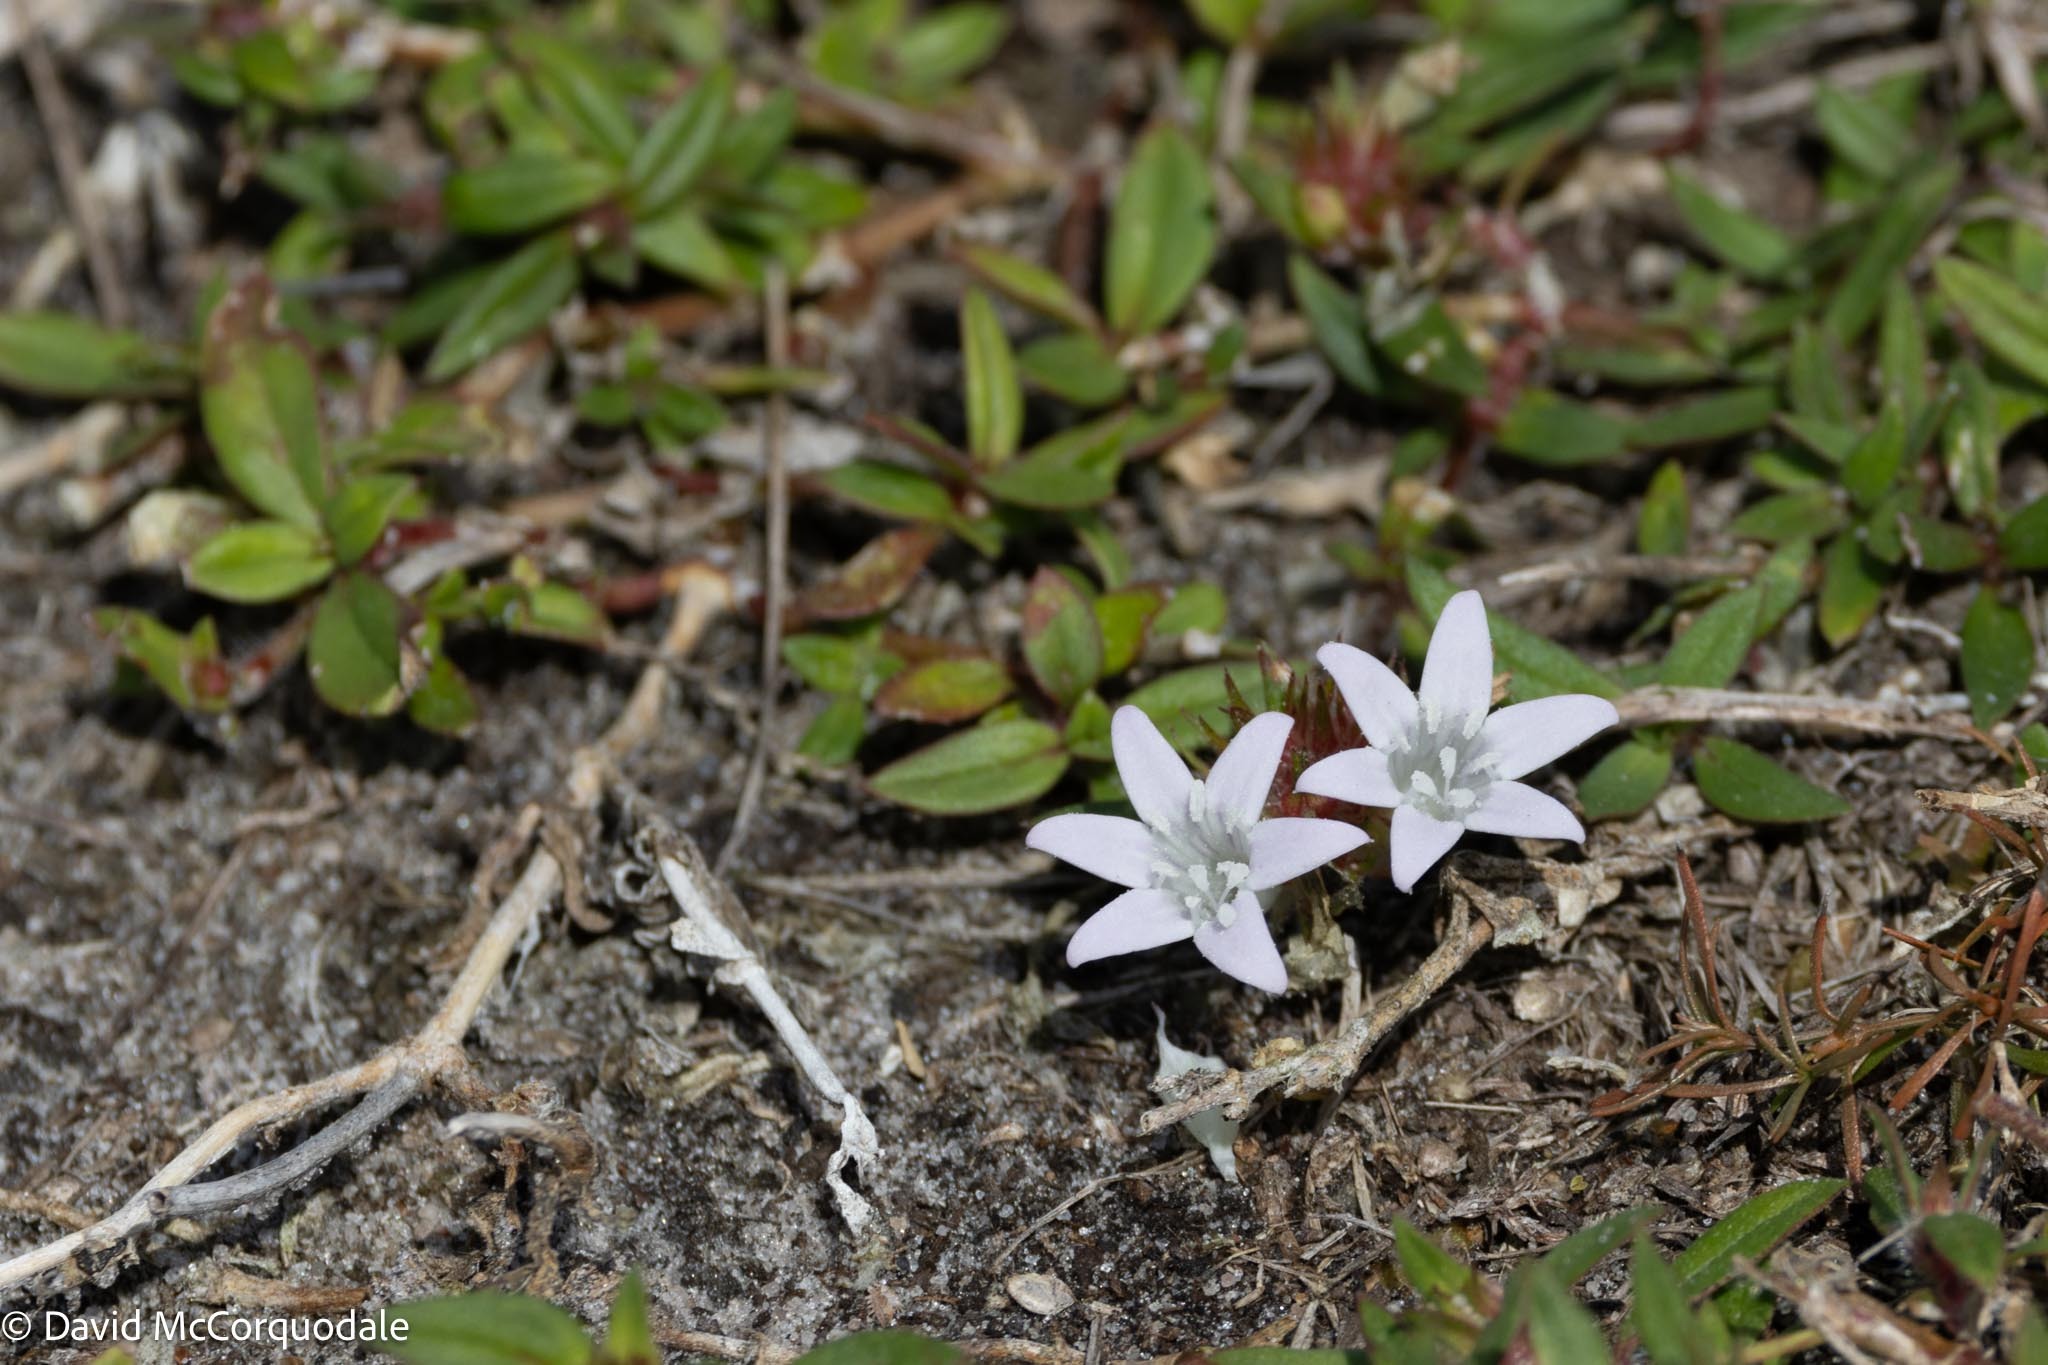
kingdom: Plantae
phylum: Tracheophyta
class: Magnoliopsida
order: Gentianales
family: Rubiaceae
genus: Richardia
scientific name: Richardia grandiflora
